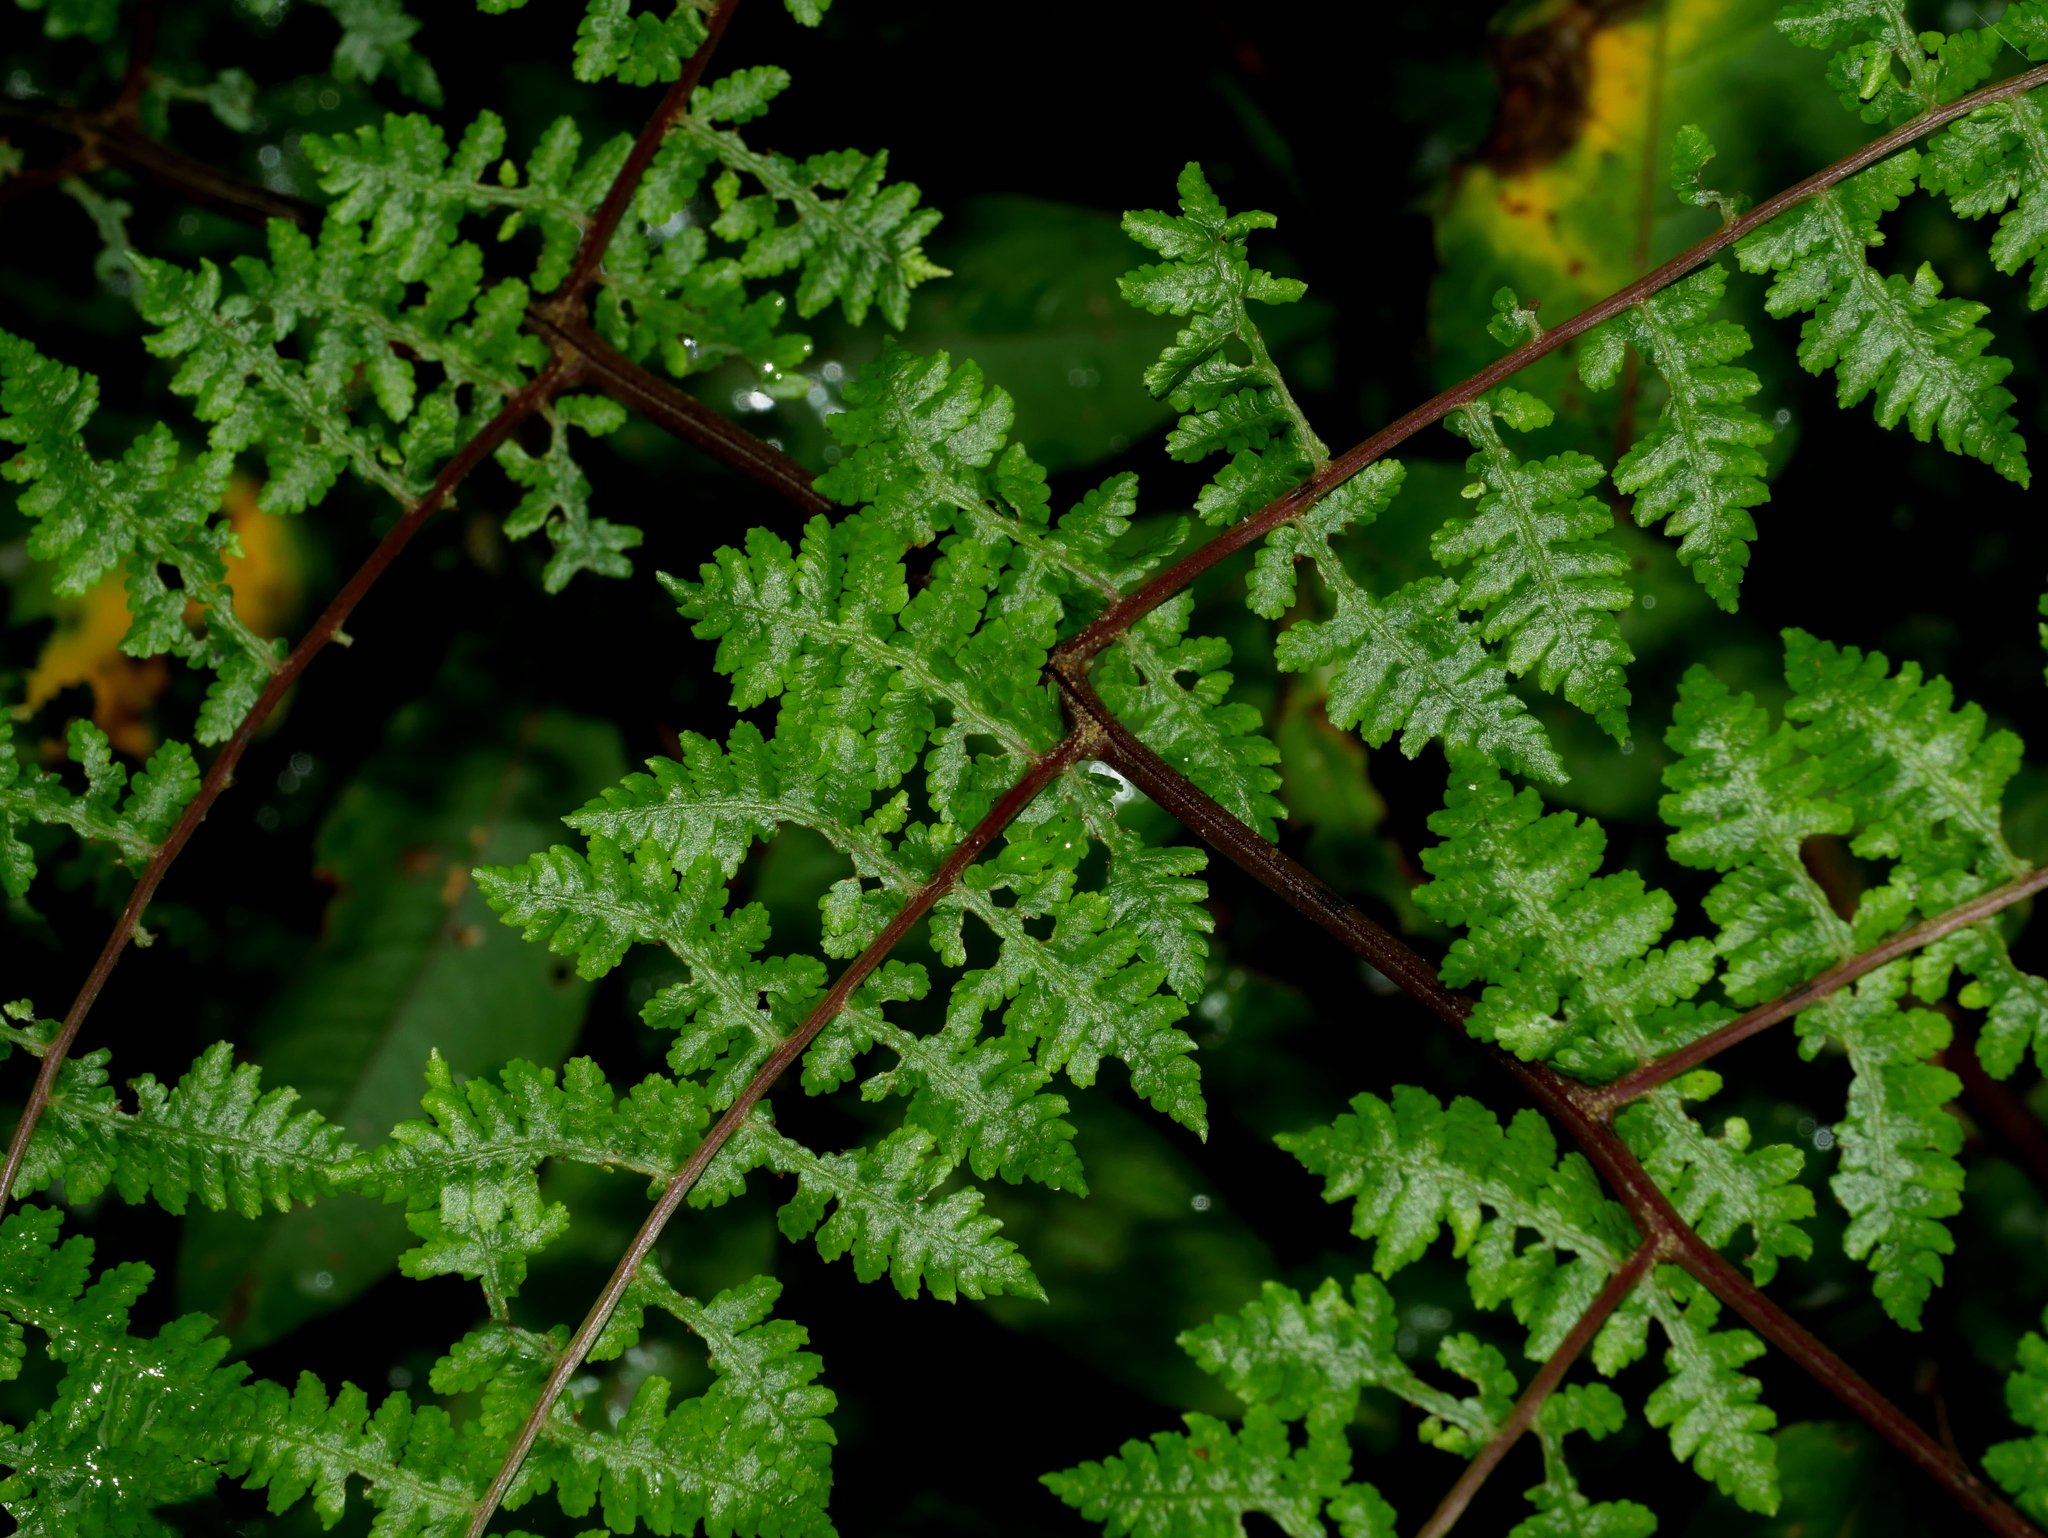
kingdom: Plantae
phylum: Tracheophyta
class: Polypodiopsida
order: Polypodiales
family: Athyriaceae
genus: Cornopteris
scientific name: Cornopteris banajaoensis
